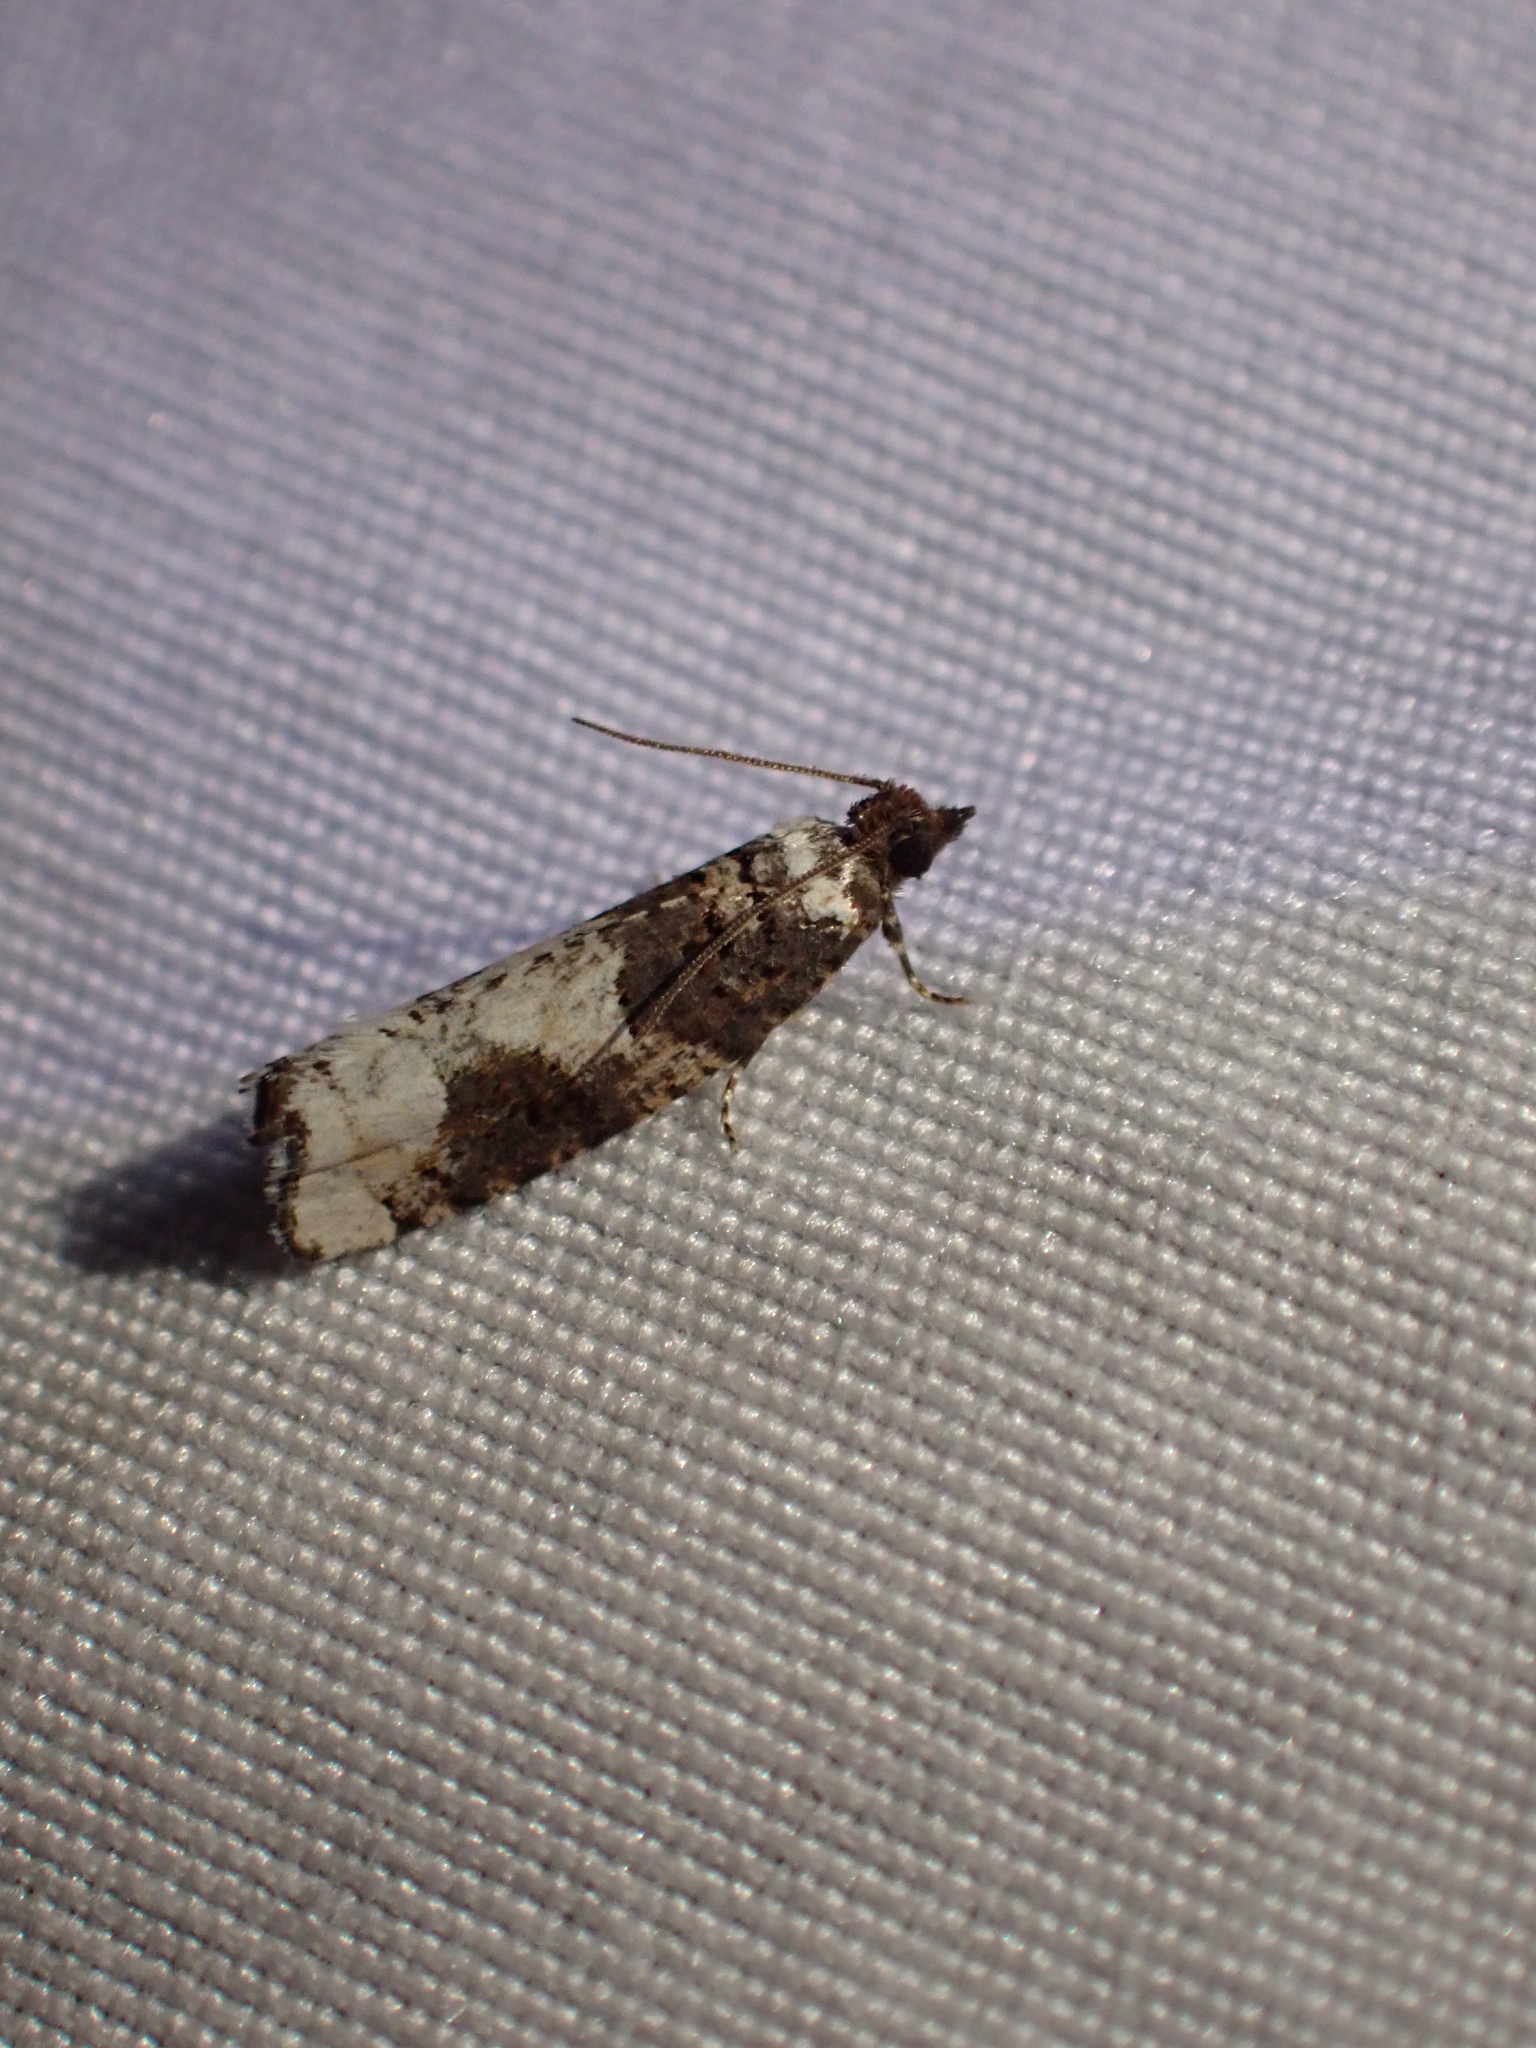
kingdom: Animalia
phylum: Arthropoda
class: Insecta
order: Lepidoptera
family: Tortricidae
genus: Epinotia
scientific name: Epinotia lomonana
